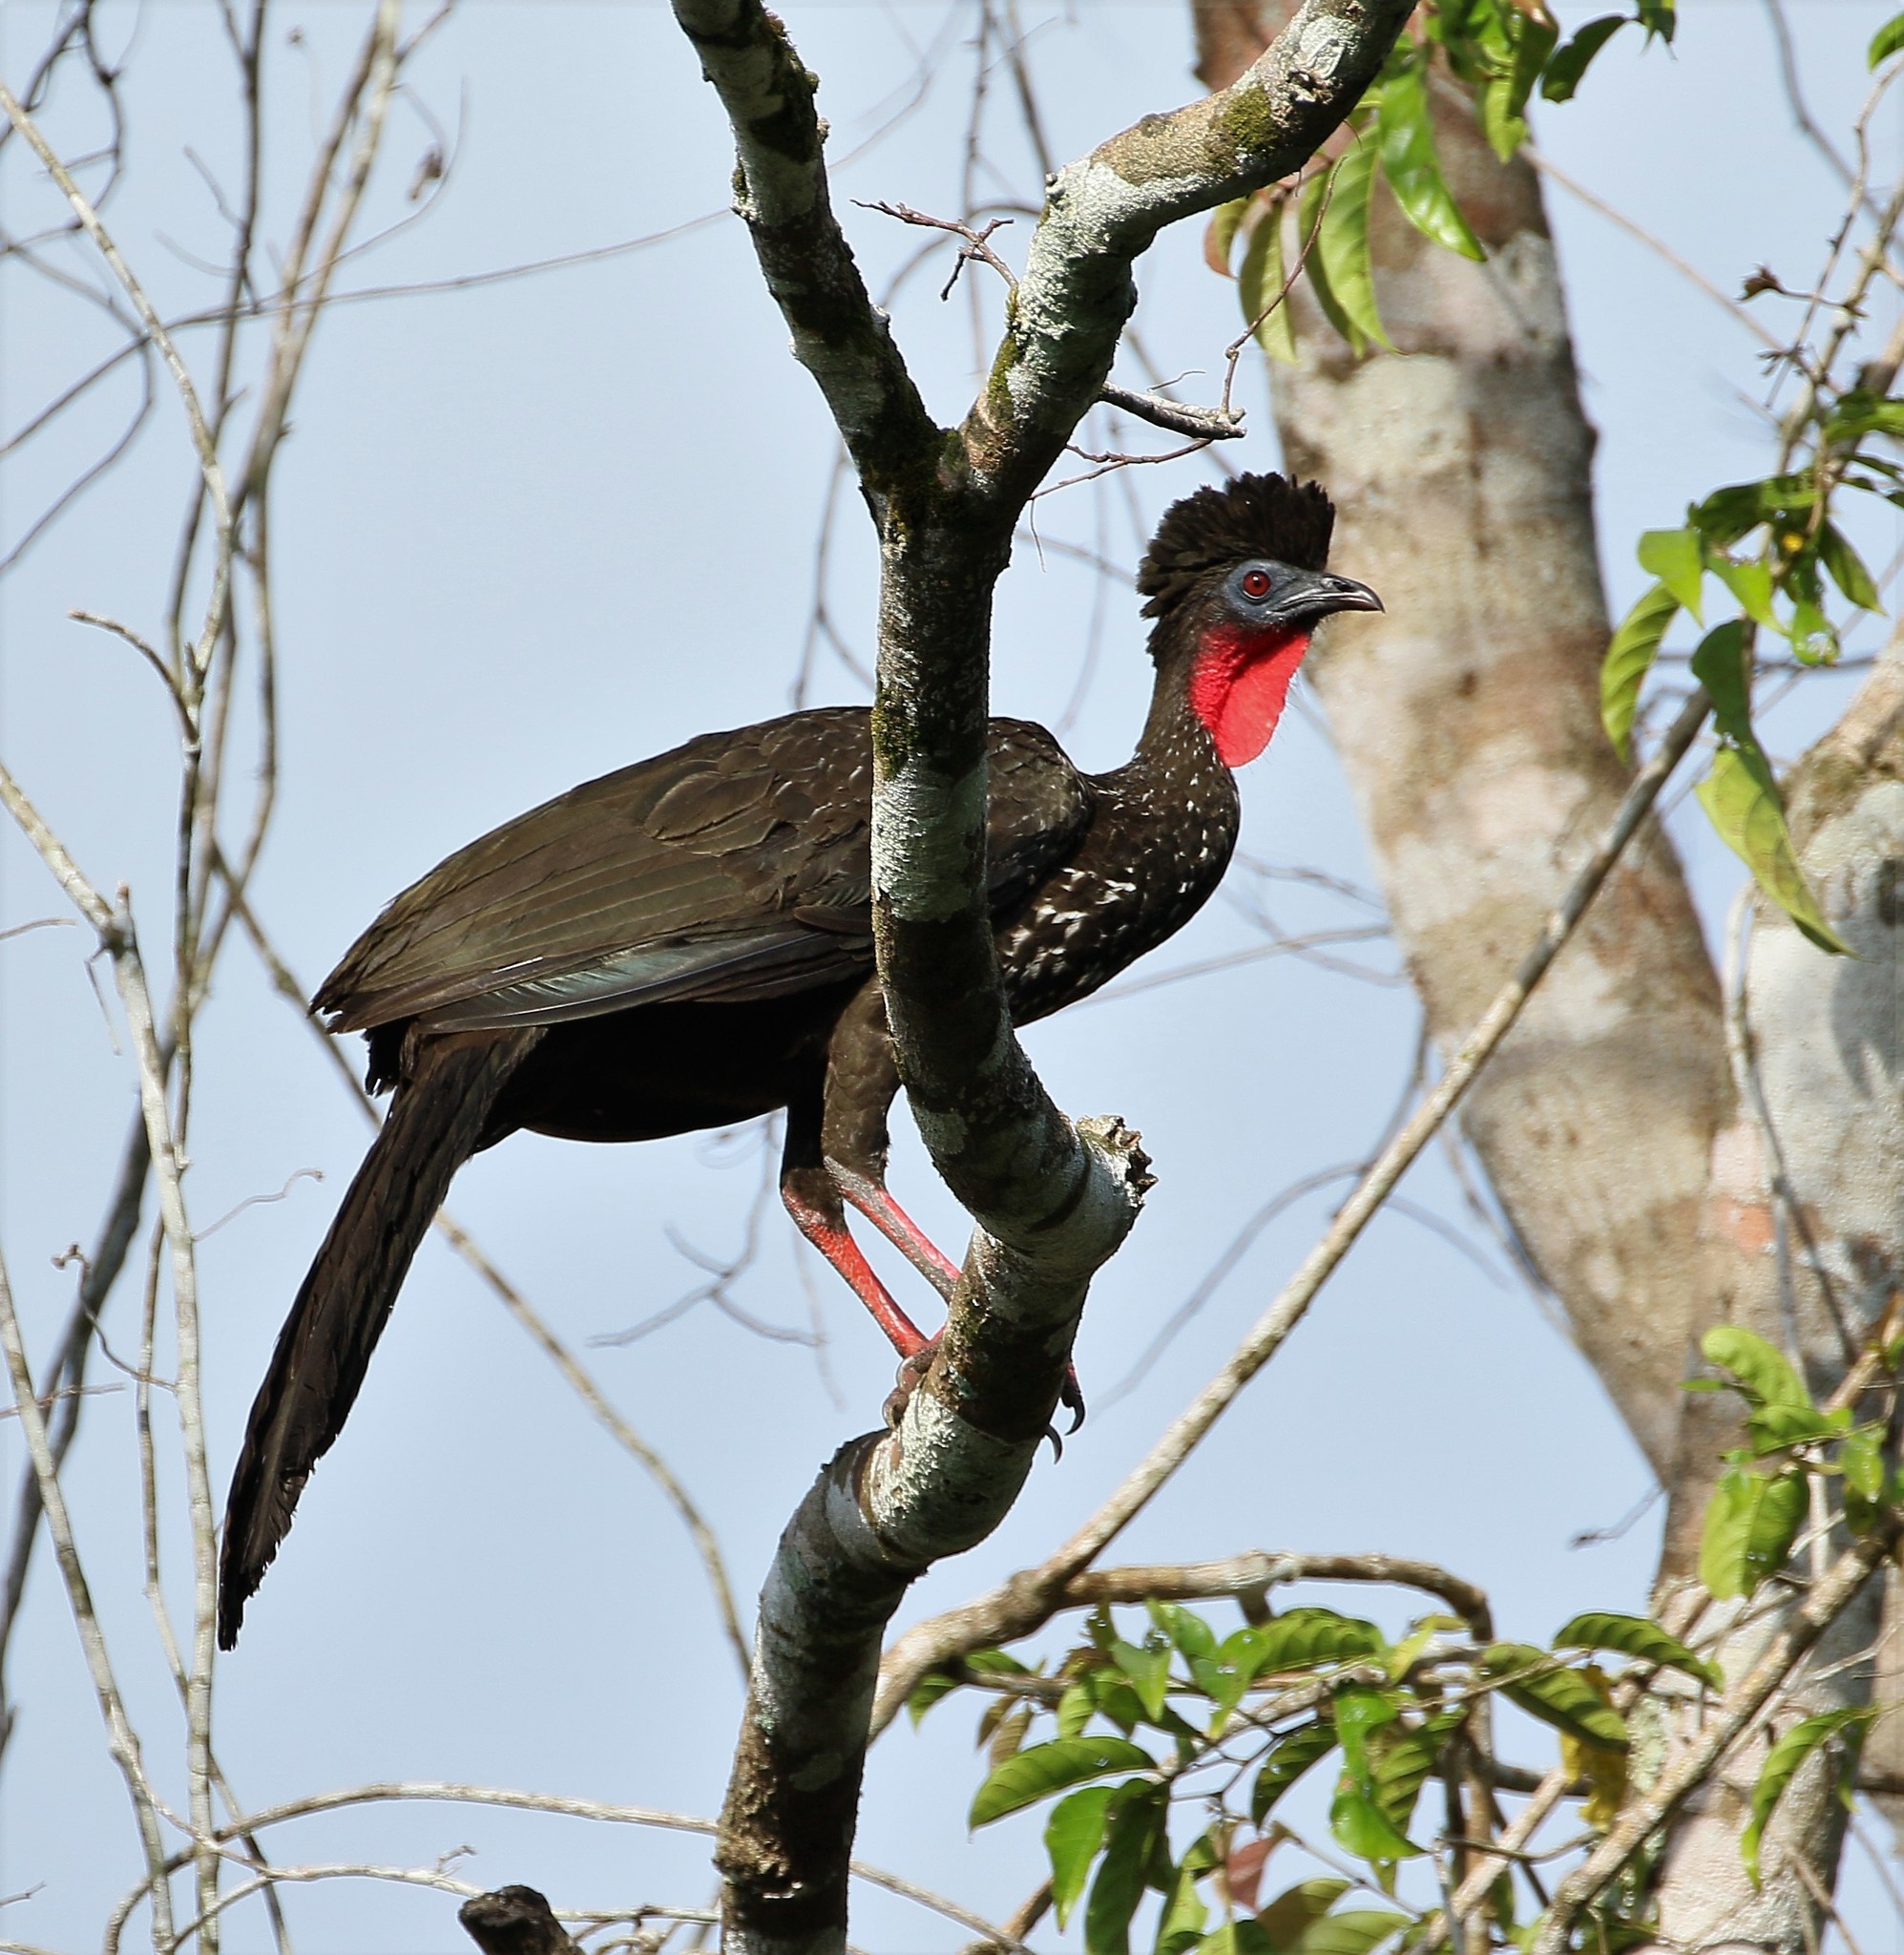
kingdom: Animalia
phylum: Chordata
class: Aves
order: Galliformes
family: Cracidae
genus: Penelope
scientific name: Penelope purpurascens
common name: Crested guan
